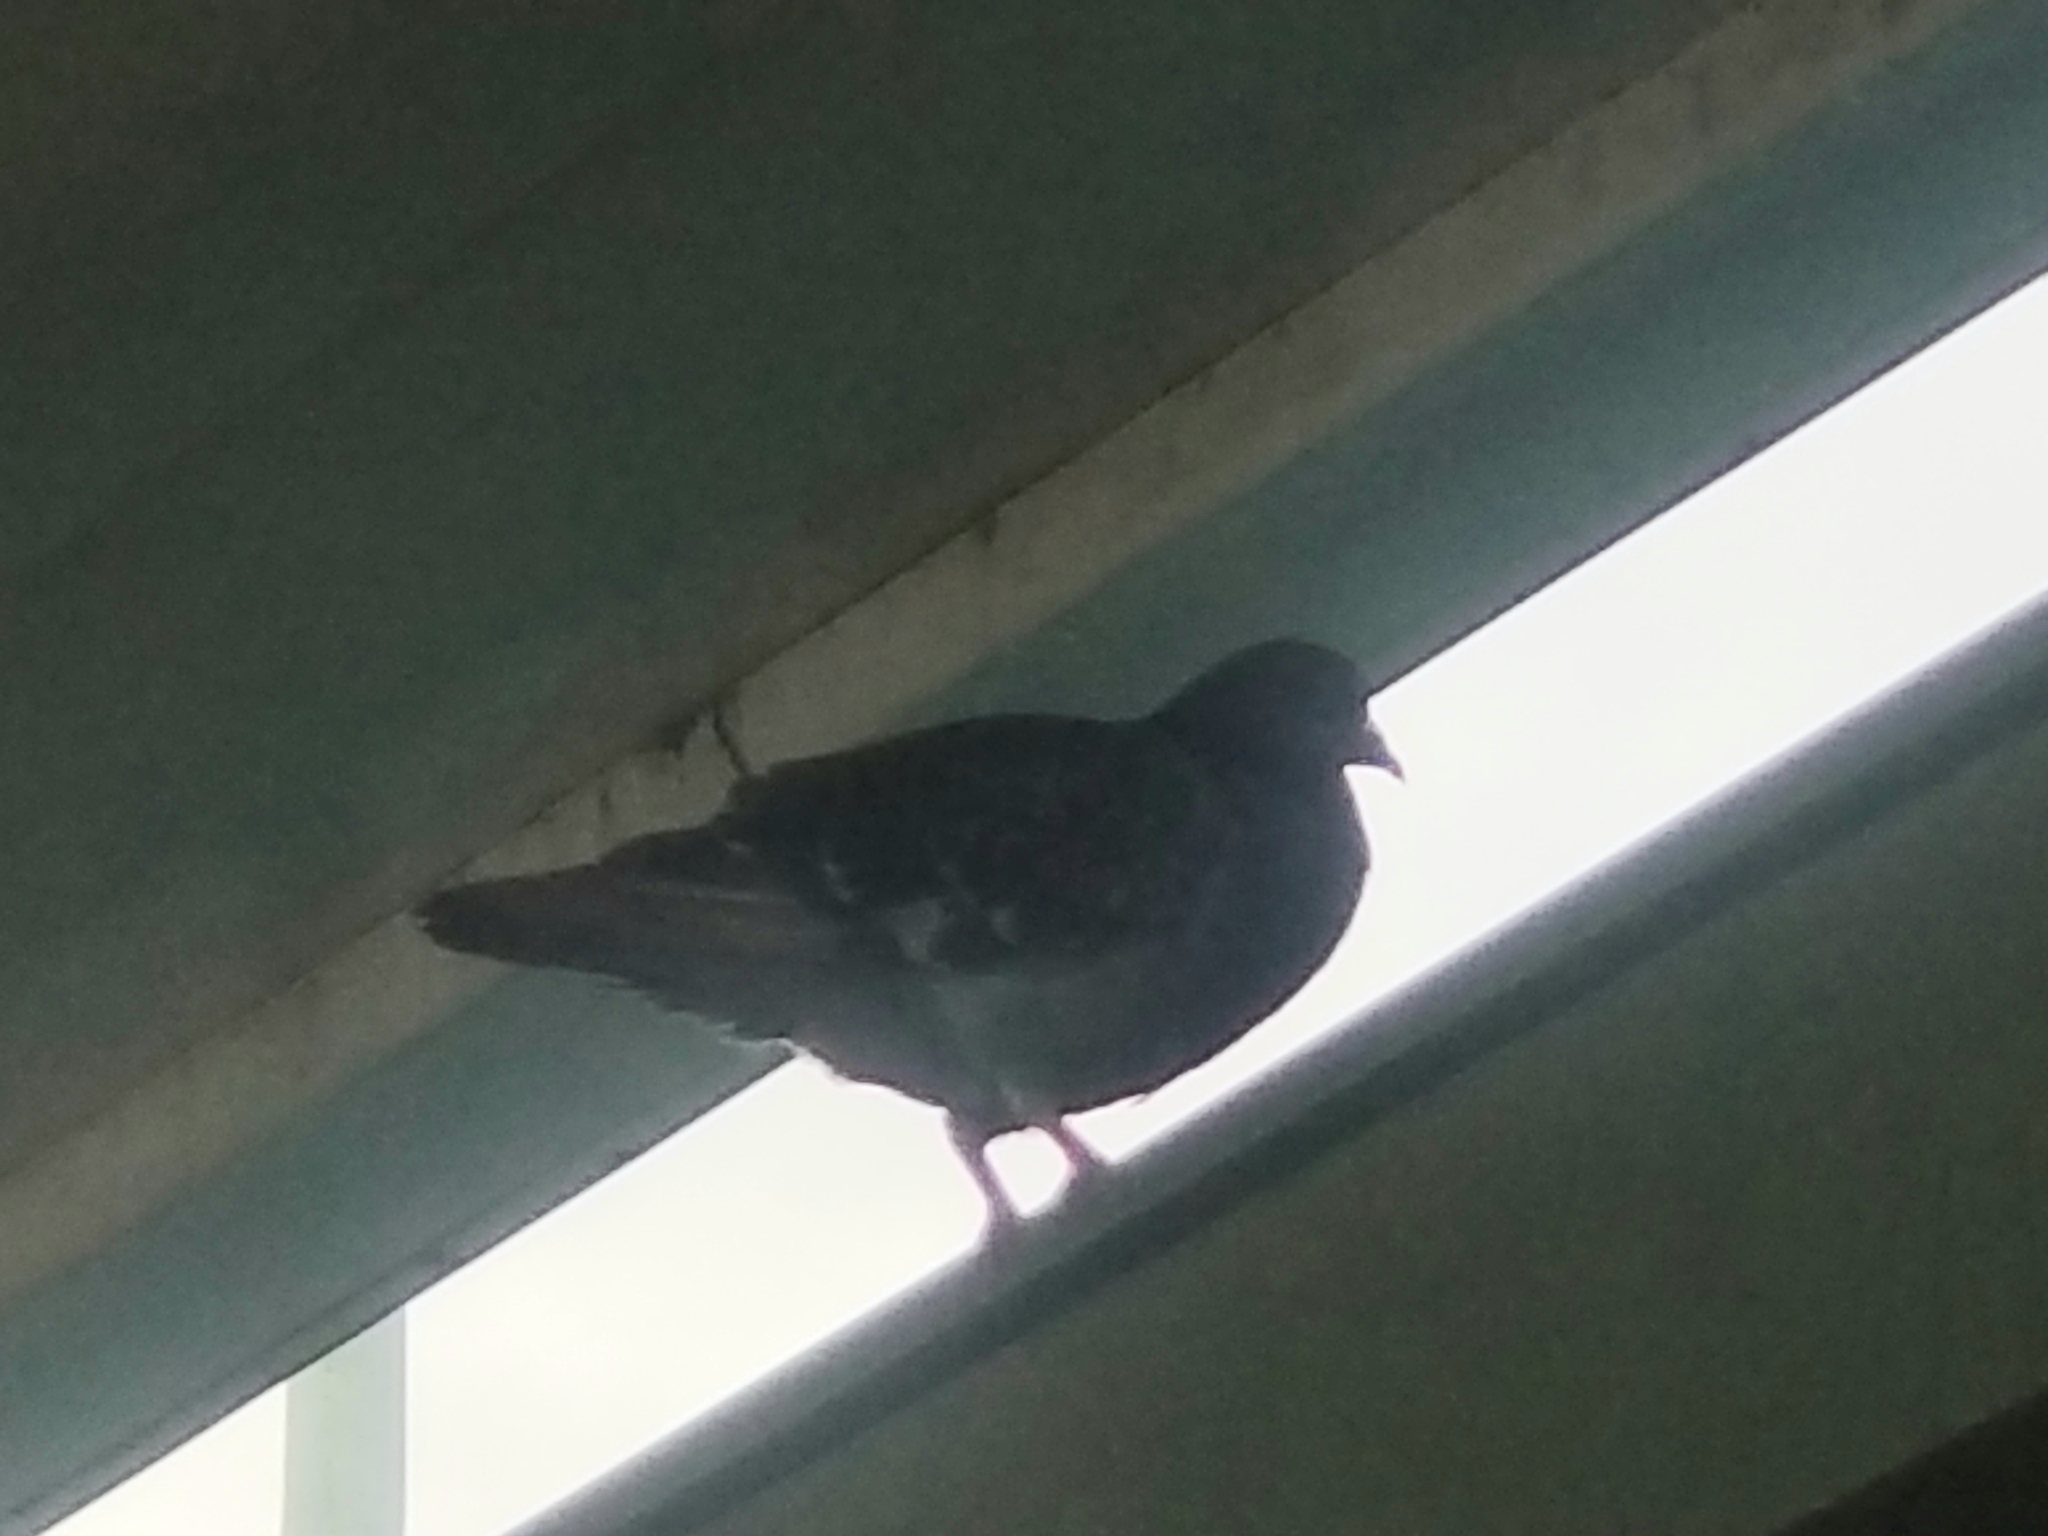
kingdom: Animalia
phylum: Chordata
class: Aves
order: Columbiformes
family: Columbidae
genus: Columba
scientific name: Columba livia
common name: Rock pigeon
